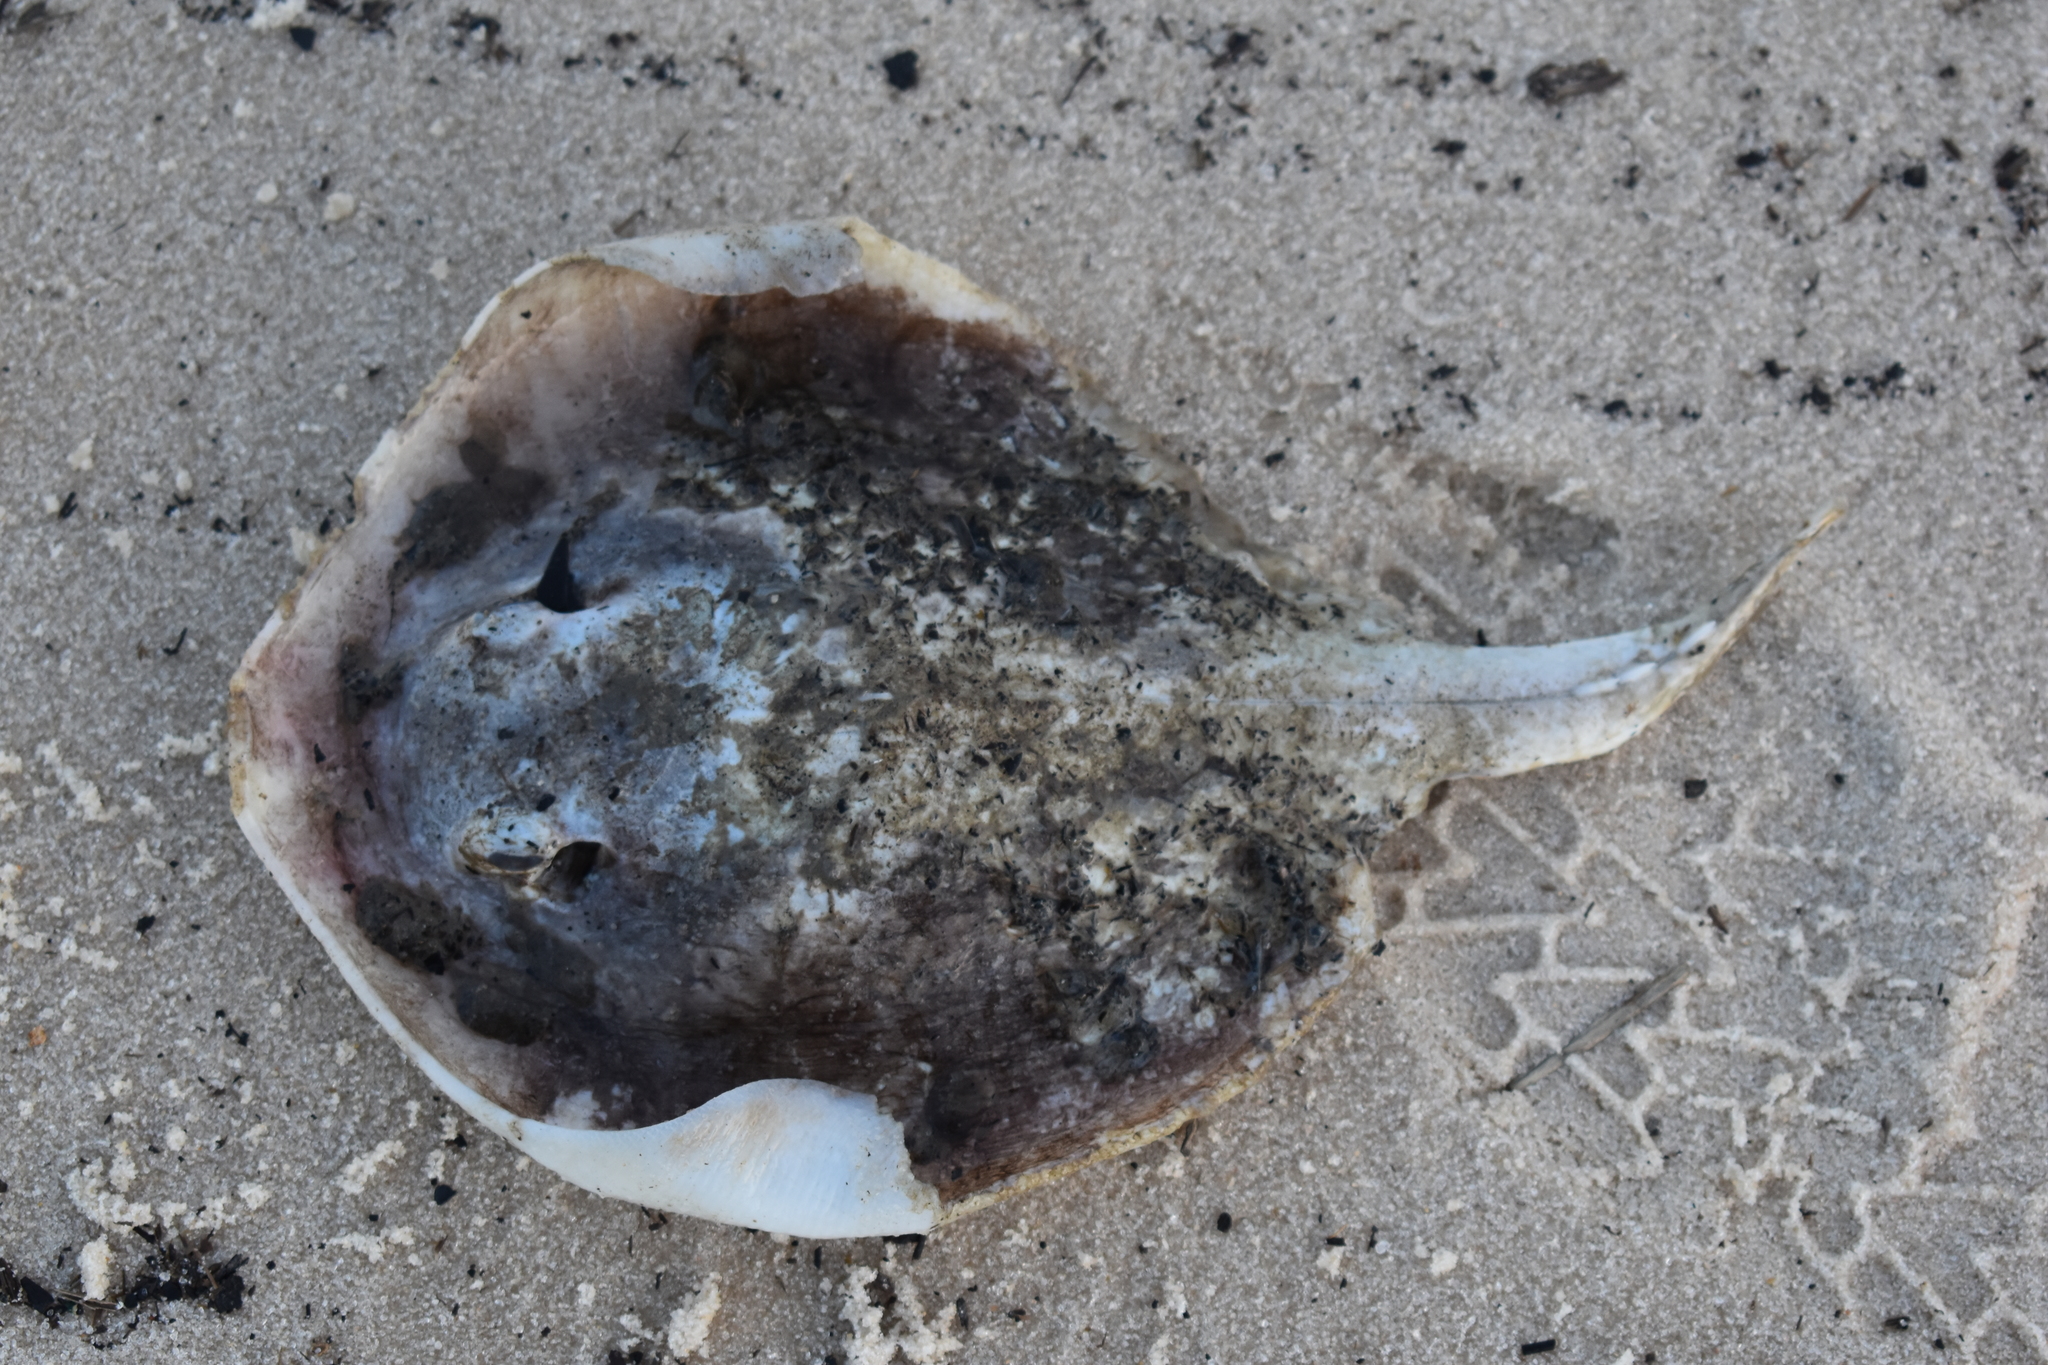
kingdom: Animalia
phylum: Chordata
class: Elasmobranchii
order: Myliobatiformes
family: Dasyatidae
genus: Hypanus
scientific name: Hypanus sabinus
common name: Atlantic stingray
